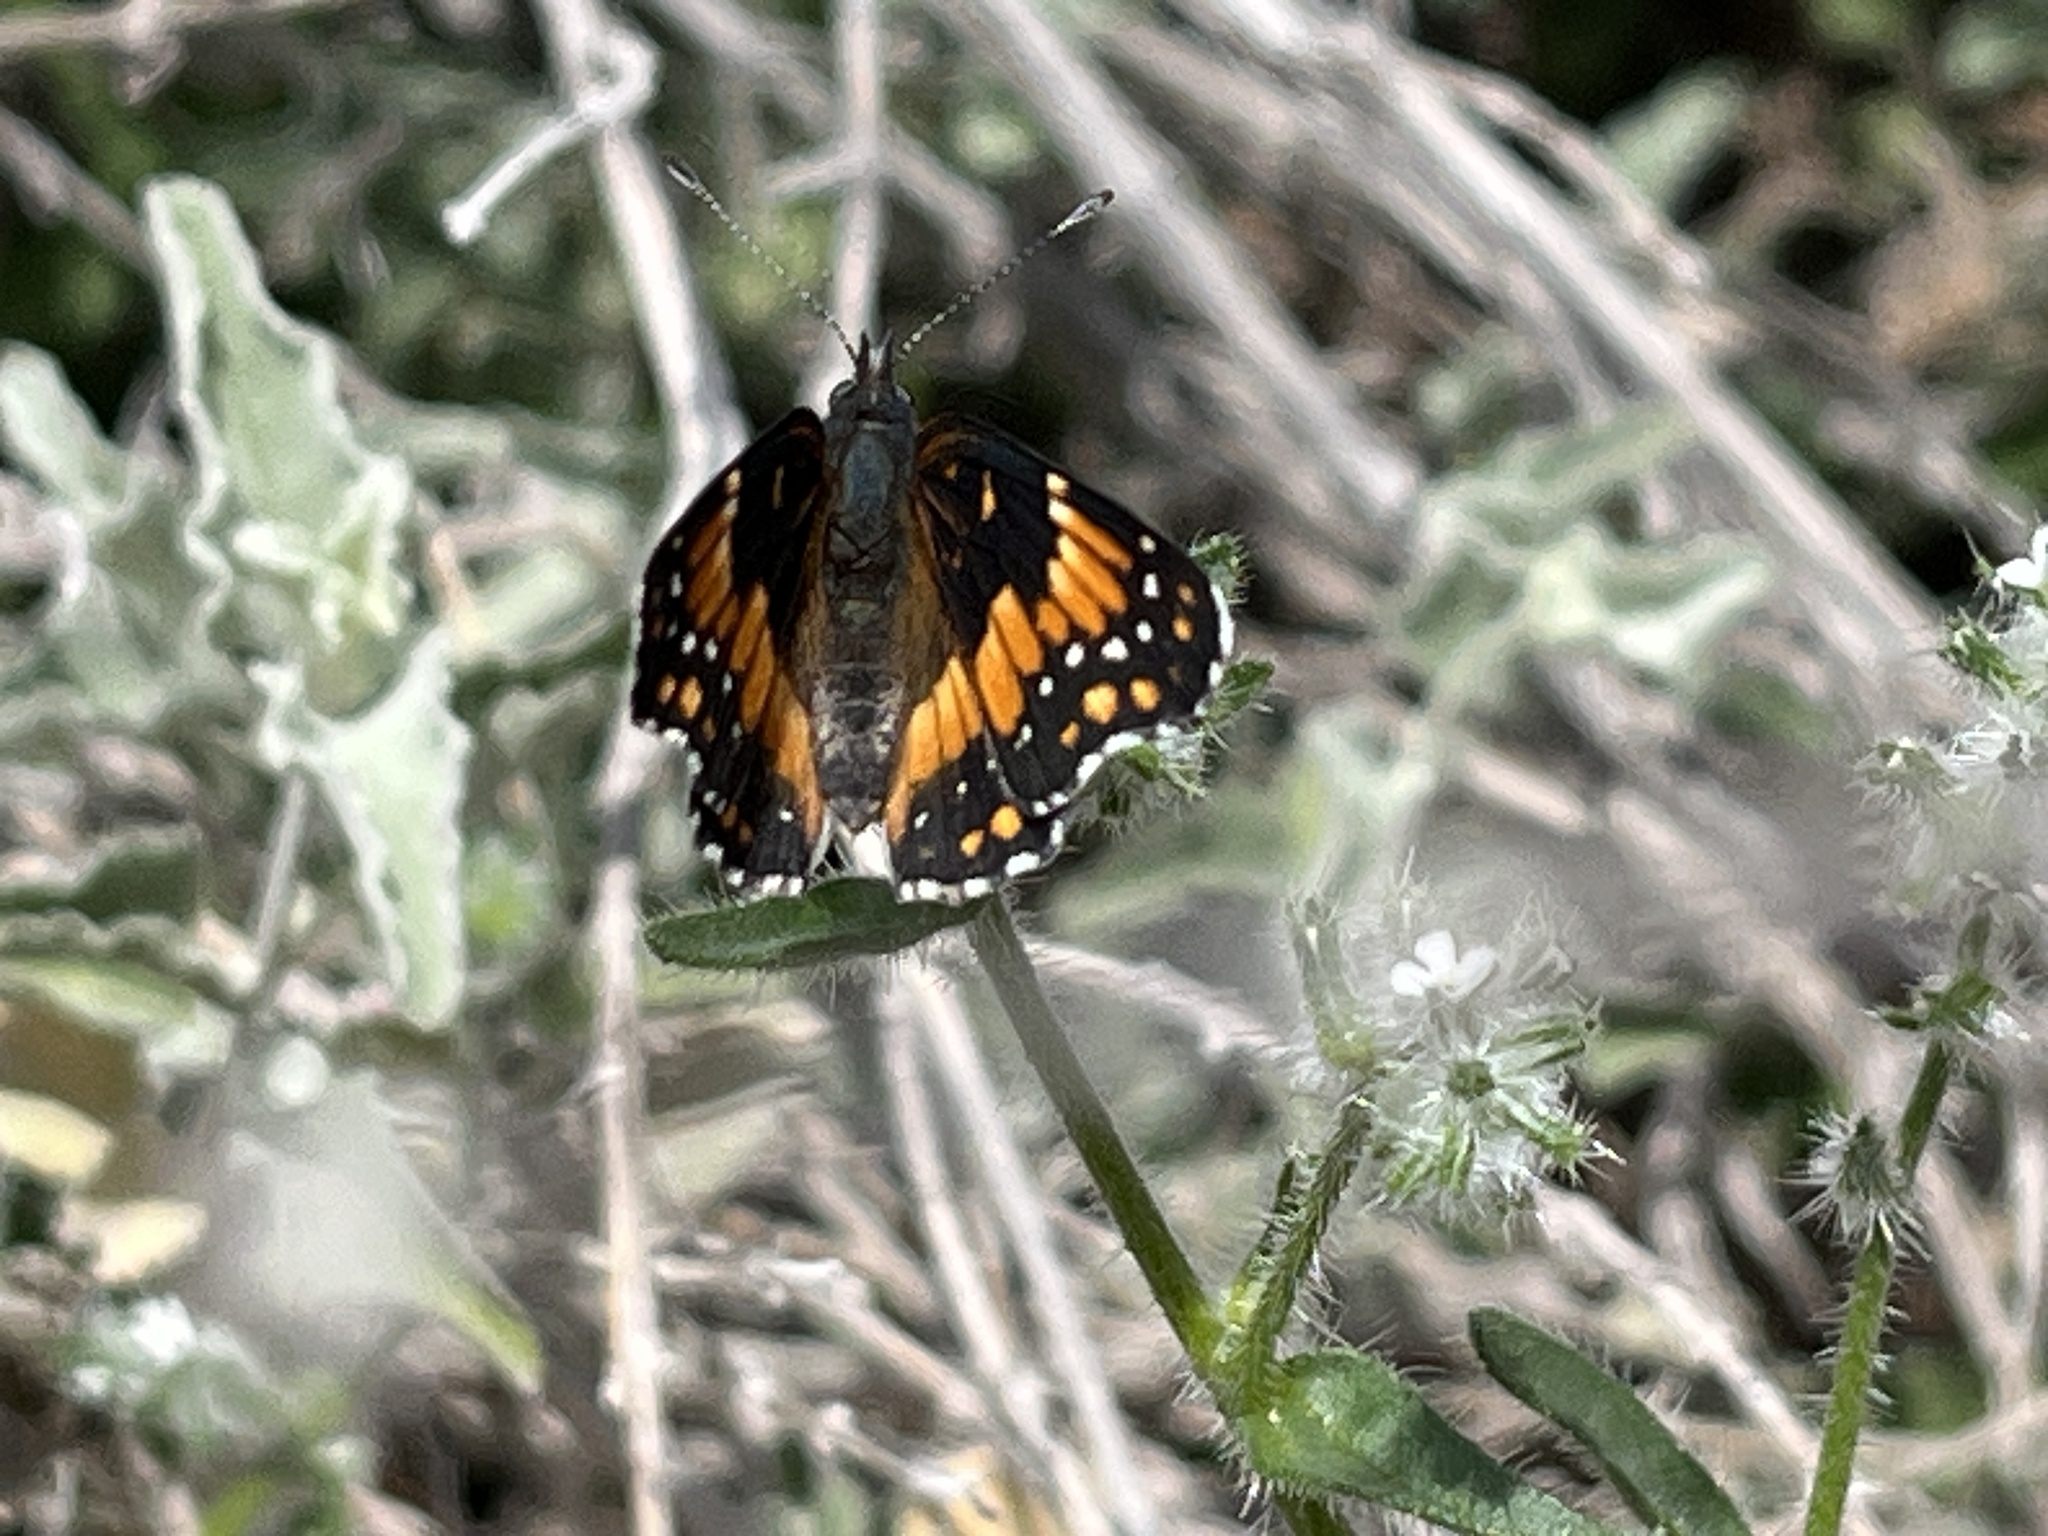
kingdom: Animalia
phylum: Arthropoda
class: Insecta
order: Lepidoptera
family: Nymphalidae
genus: Chlosyne
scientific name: Chlosyne californica
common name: California patch
